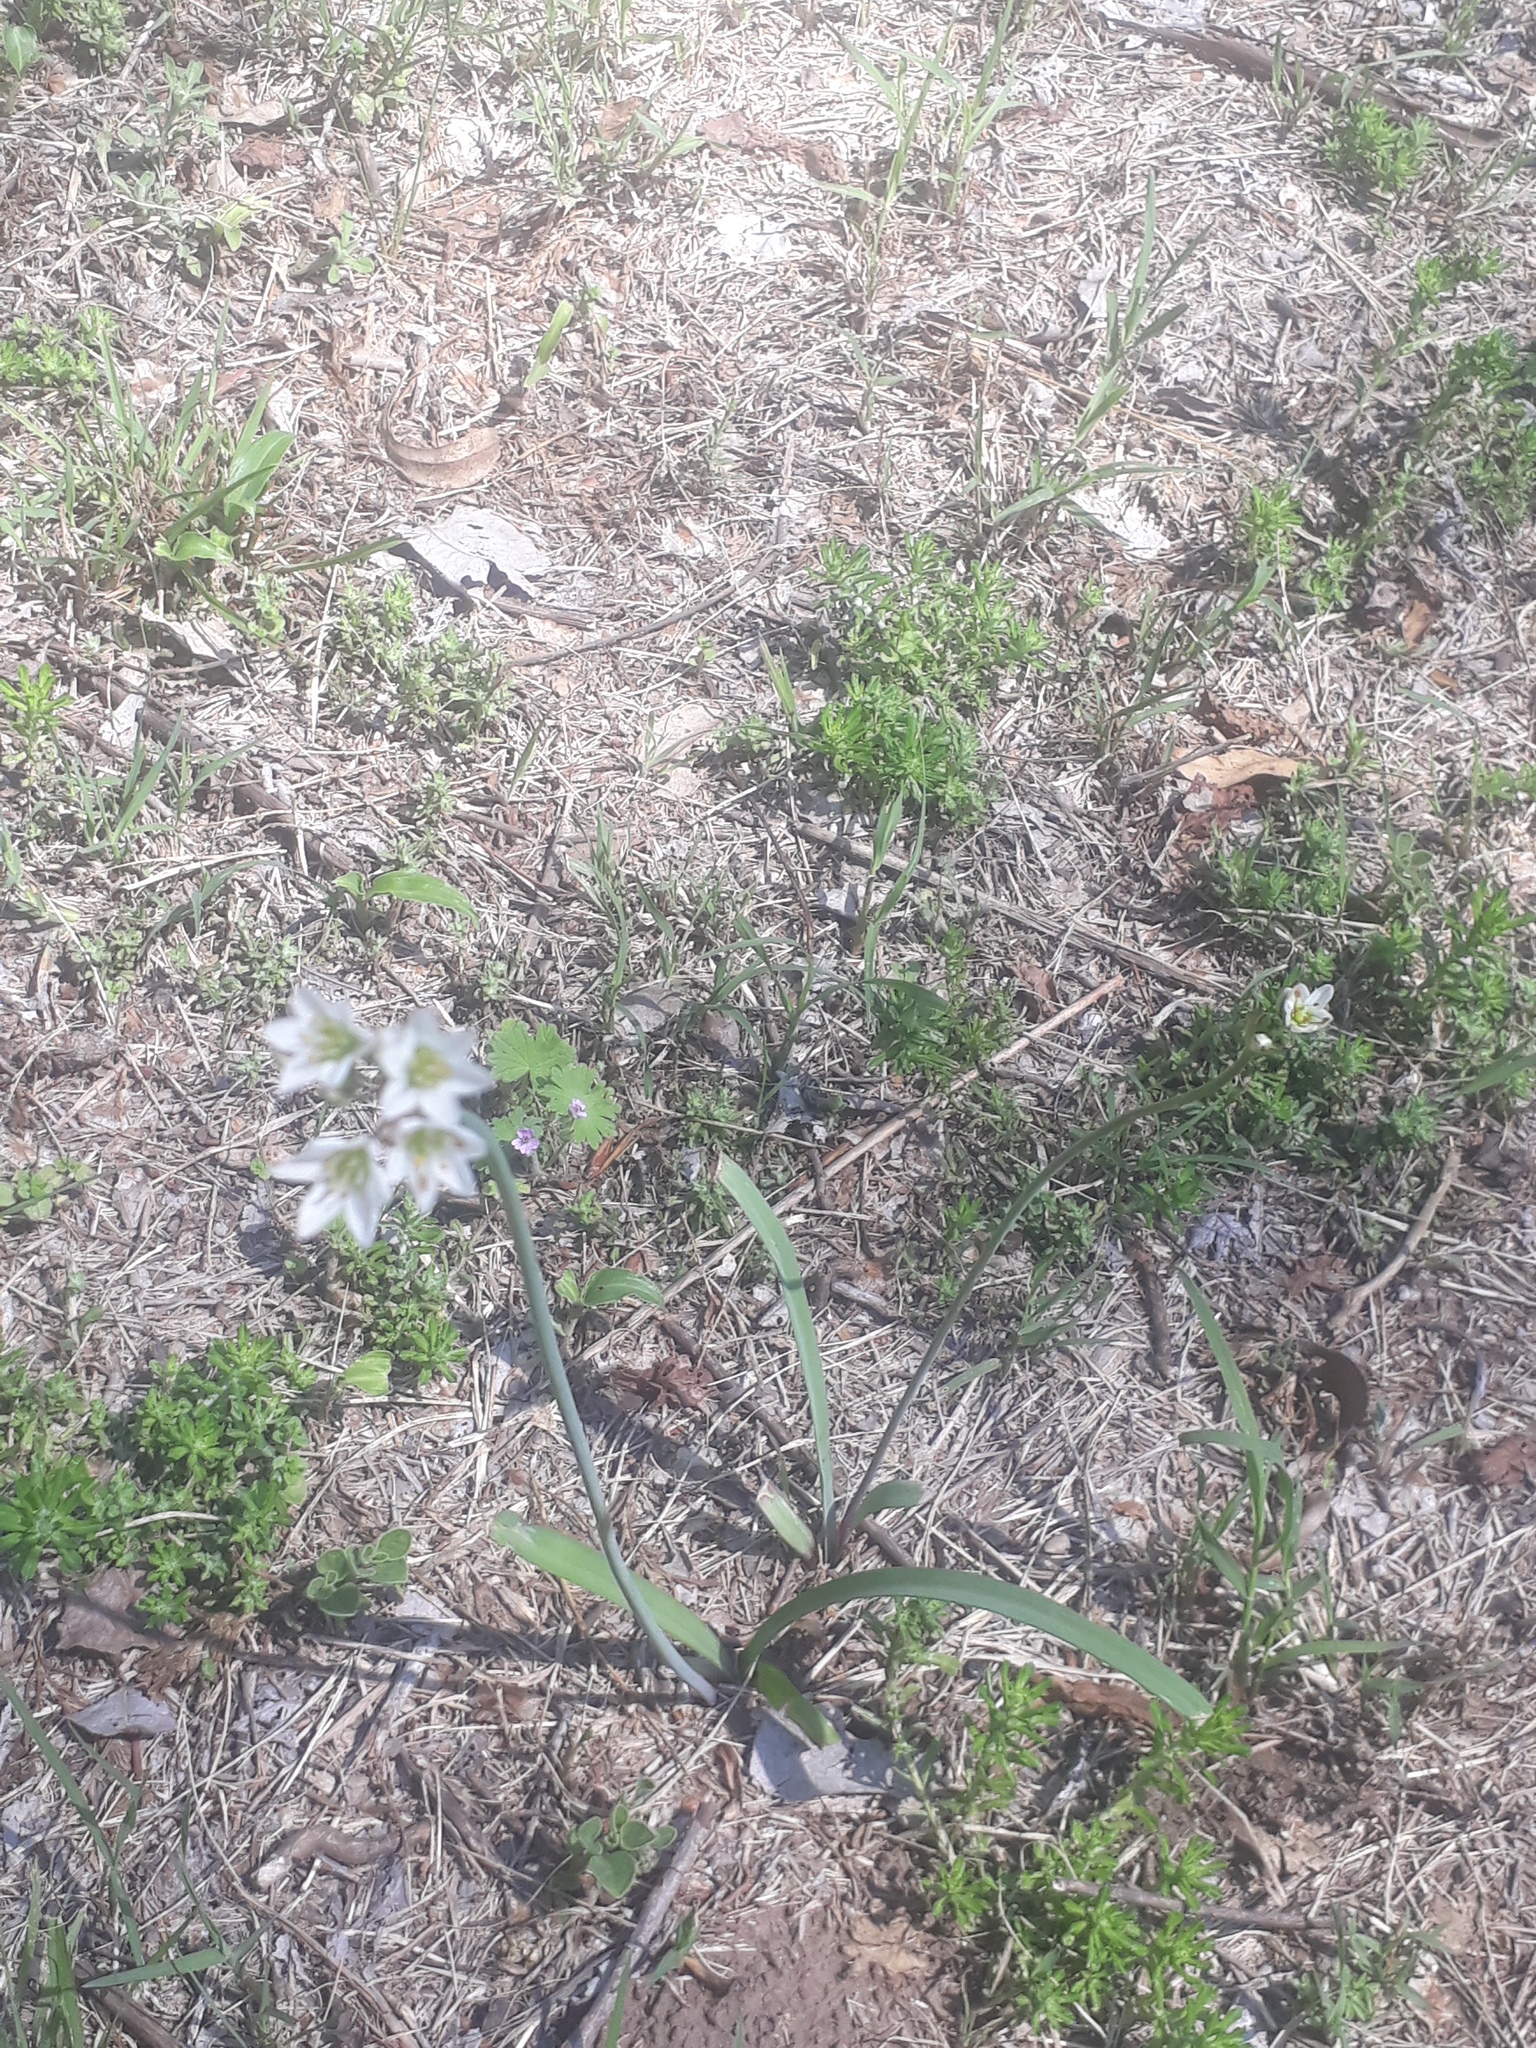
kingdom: Plantae
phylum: Tracheophyta
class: Liliopsida
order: Asparagales
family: Amaryllidaceae
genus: Nothoscordum
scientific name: Nothoscordum gracile
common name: Slender false garlic
